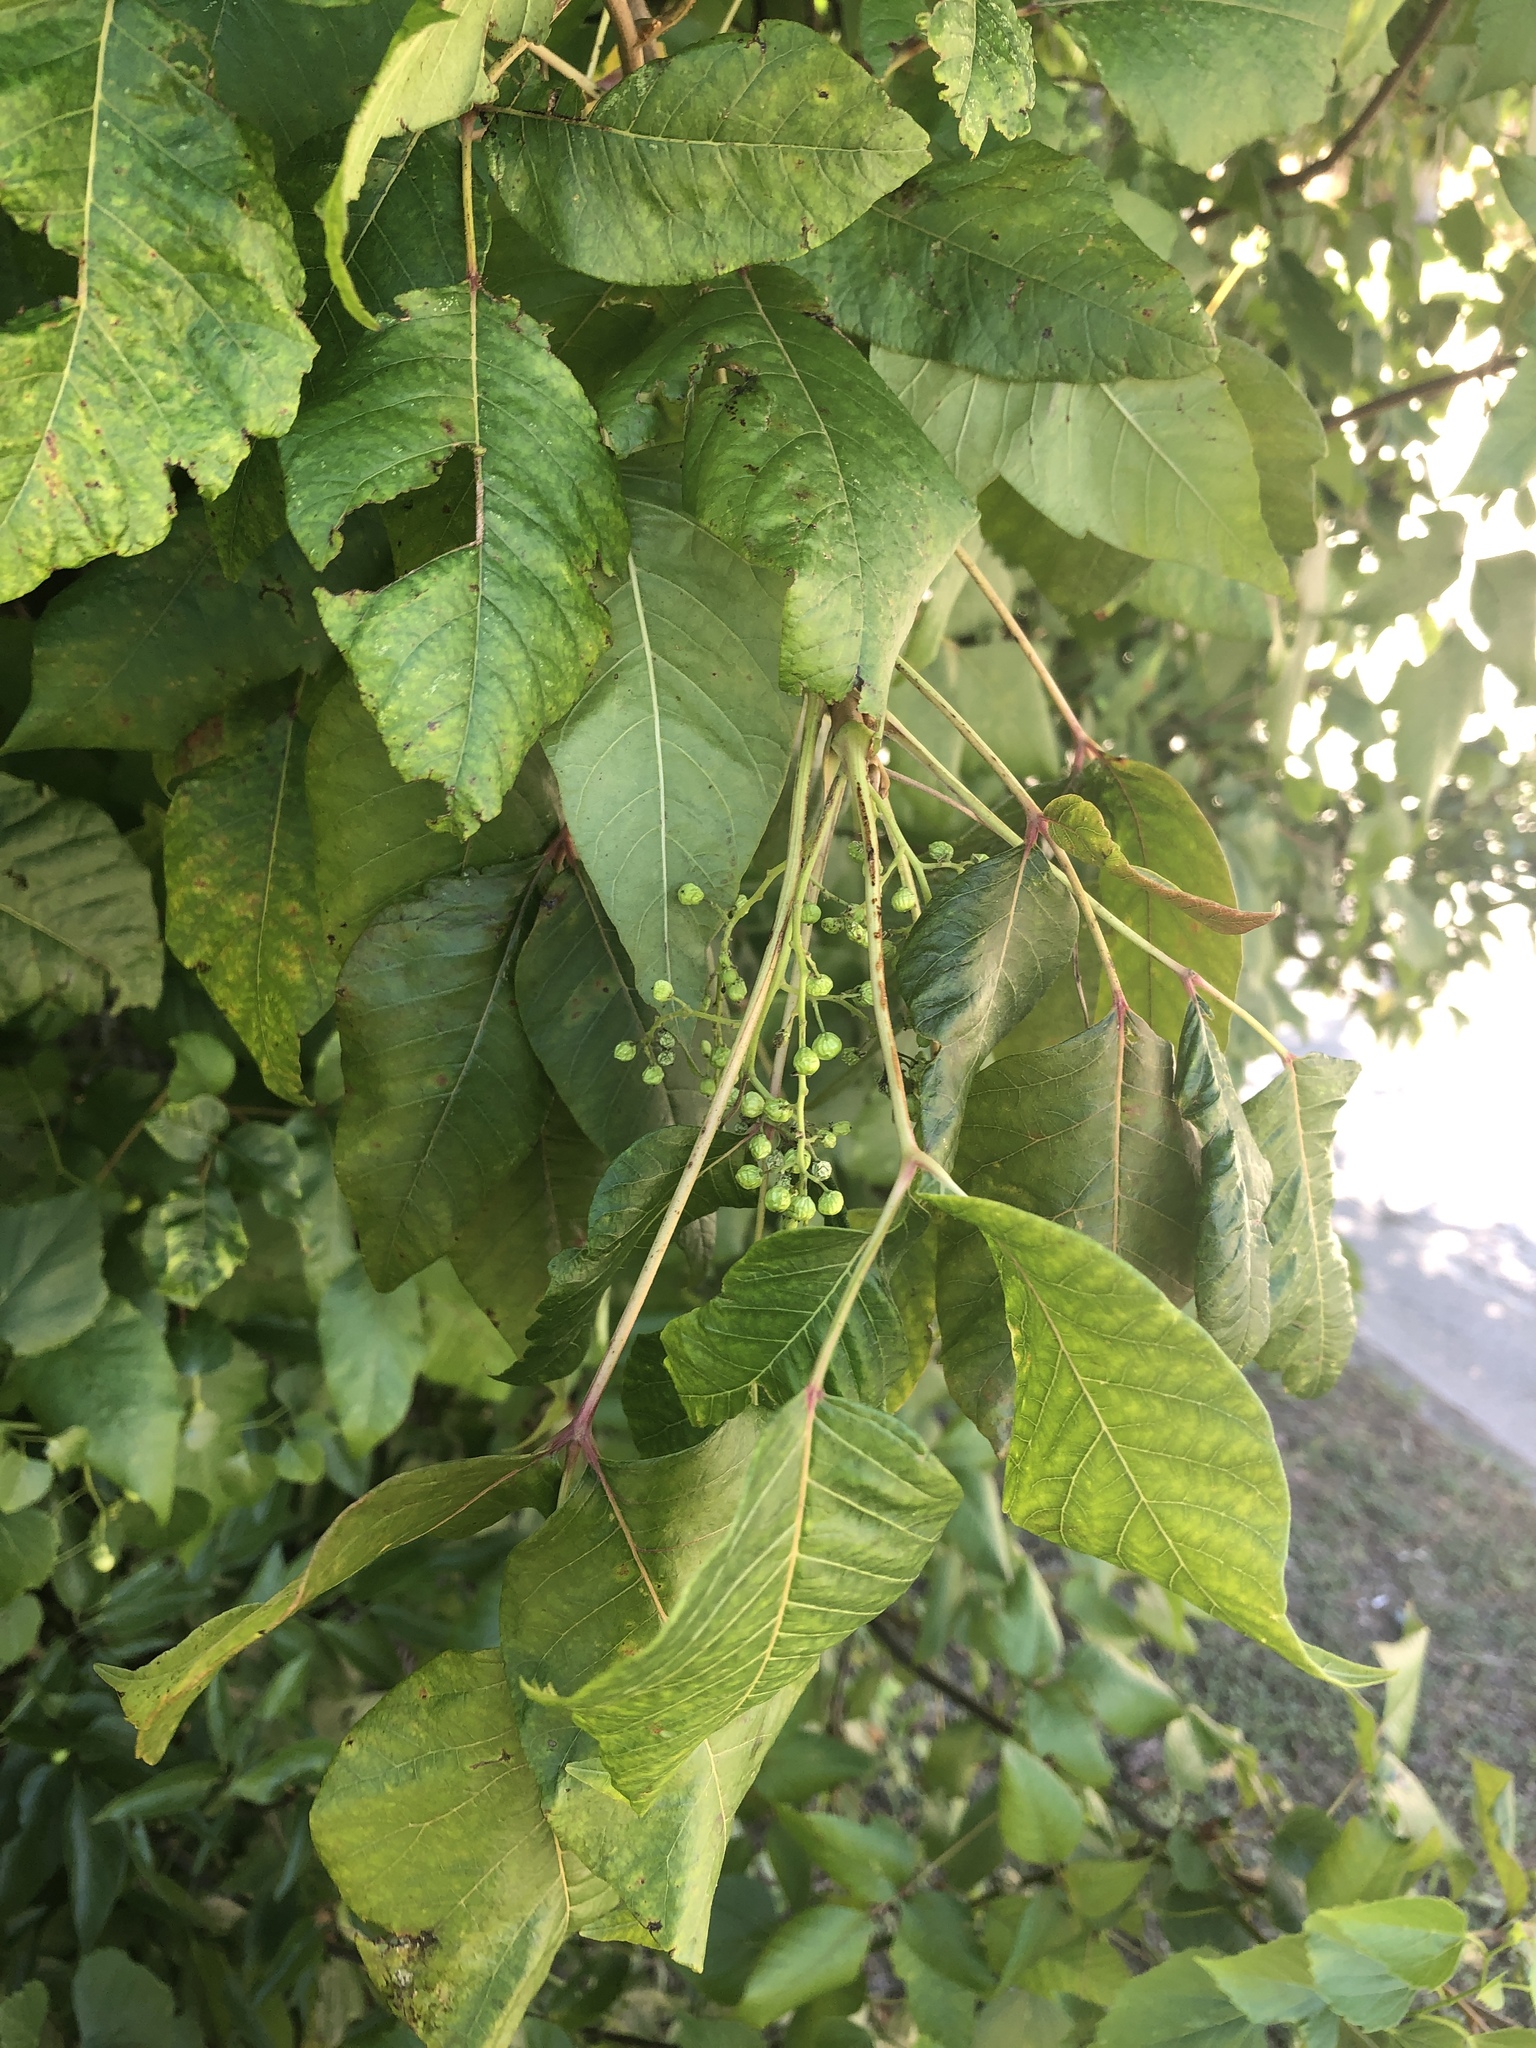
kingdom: Plantae
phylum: Tracheophyta
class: Magnoliopsida
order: Sapindales
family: Anacardiaceae
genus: Toxicodendron
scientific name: Toxicodendron radicans
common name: Poison ivy
